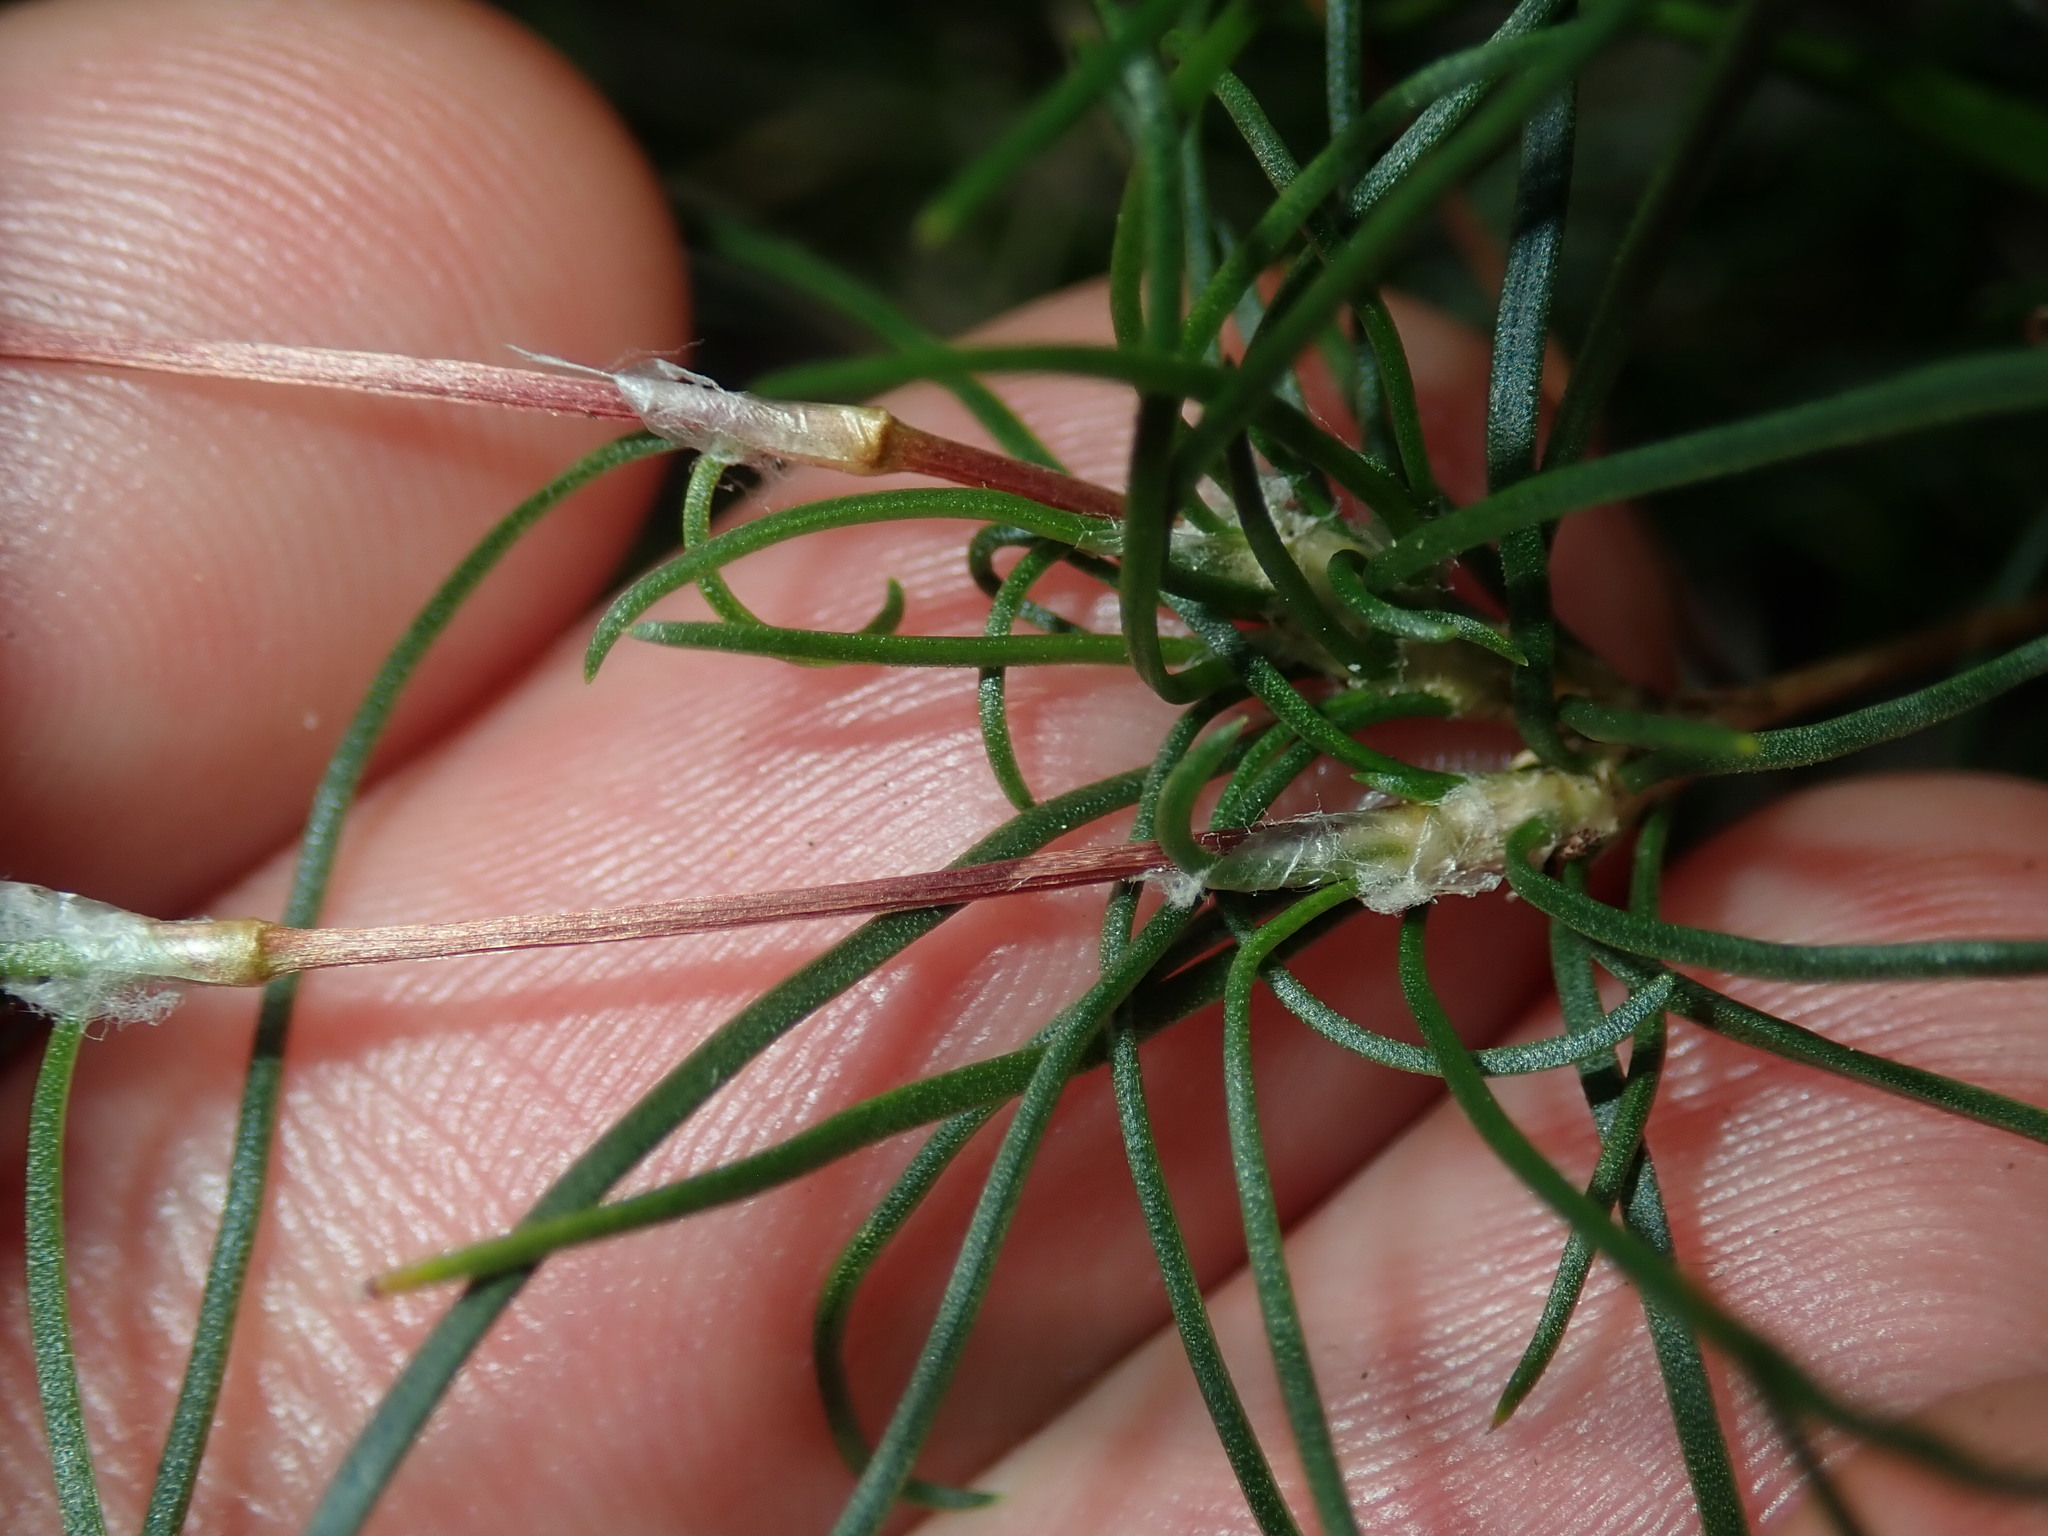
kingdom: Plantae
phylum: Tracheophyta
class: Liliopsida
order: Asparagales
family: Asparagaceae
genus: Laxmannia
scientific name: Laxmannia gracilis
